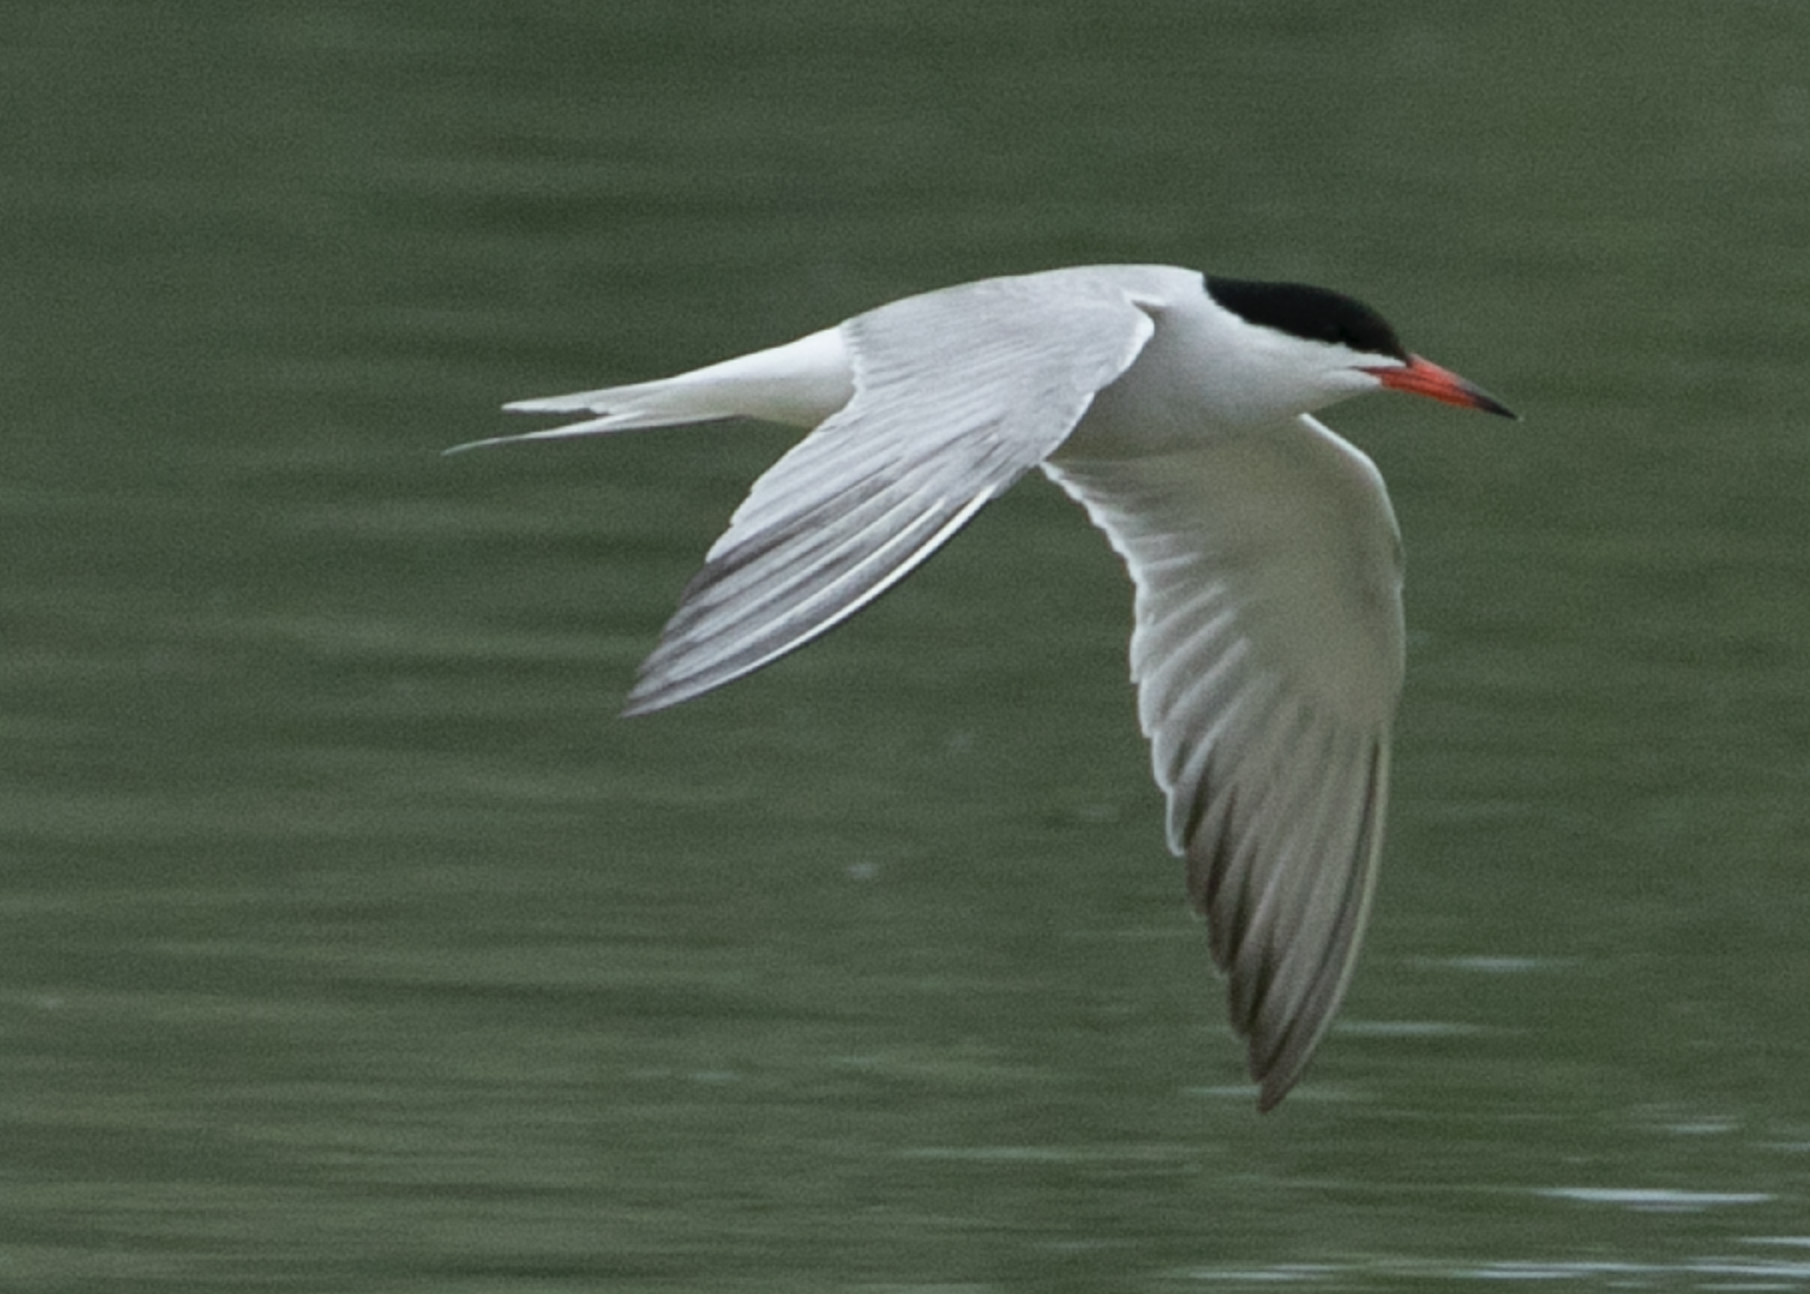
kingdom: Animalia
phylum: Chordata
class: Aves
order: Charadriiformes
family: Laridae
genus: Sterna
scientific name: Sterna hirundo
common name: Common tern
